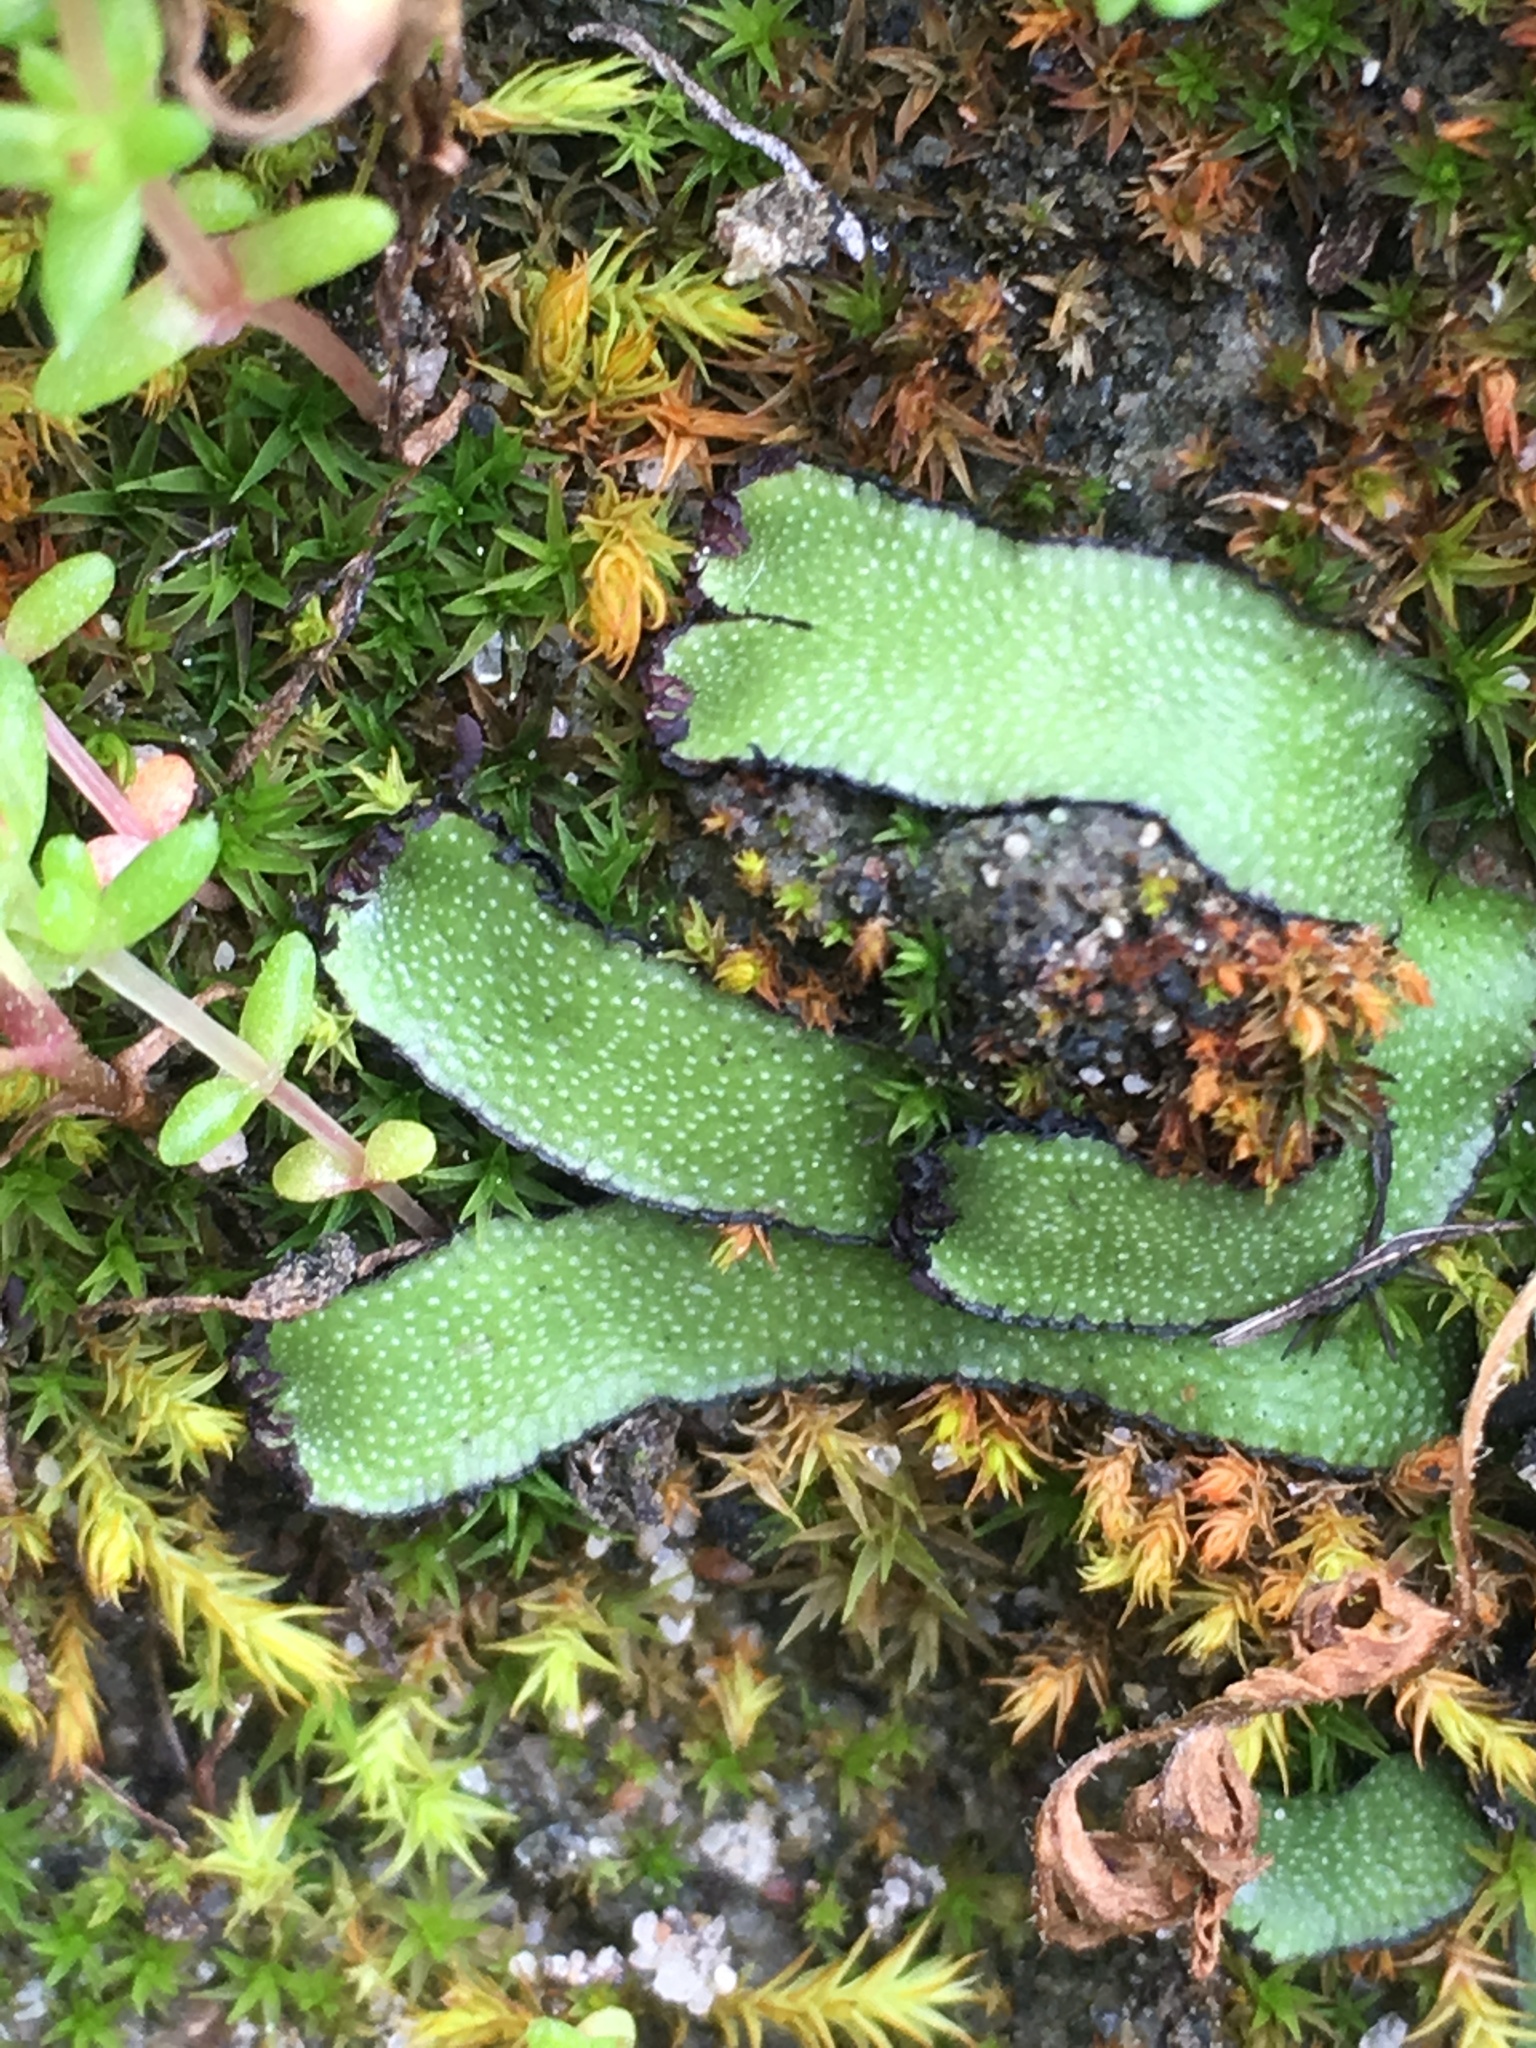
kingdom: Plantae
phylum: Marchantiophyta
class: Marchantiopsida
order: Marchantiales
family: Targioniaceae
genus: Targionia
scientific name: Targionia hypophylla
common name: Orobus-seed liverwort
